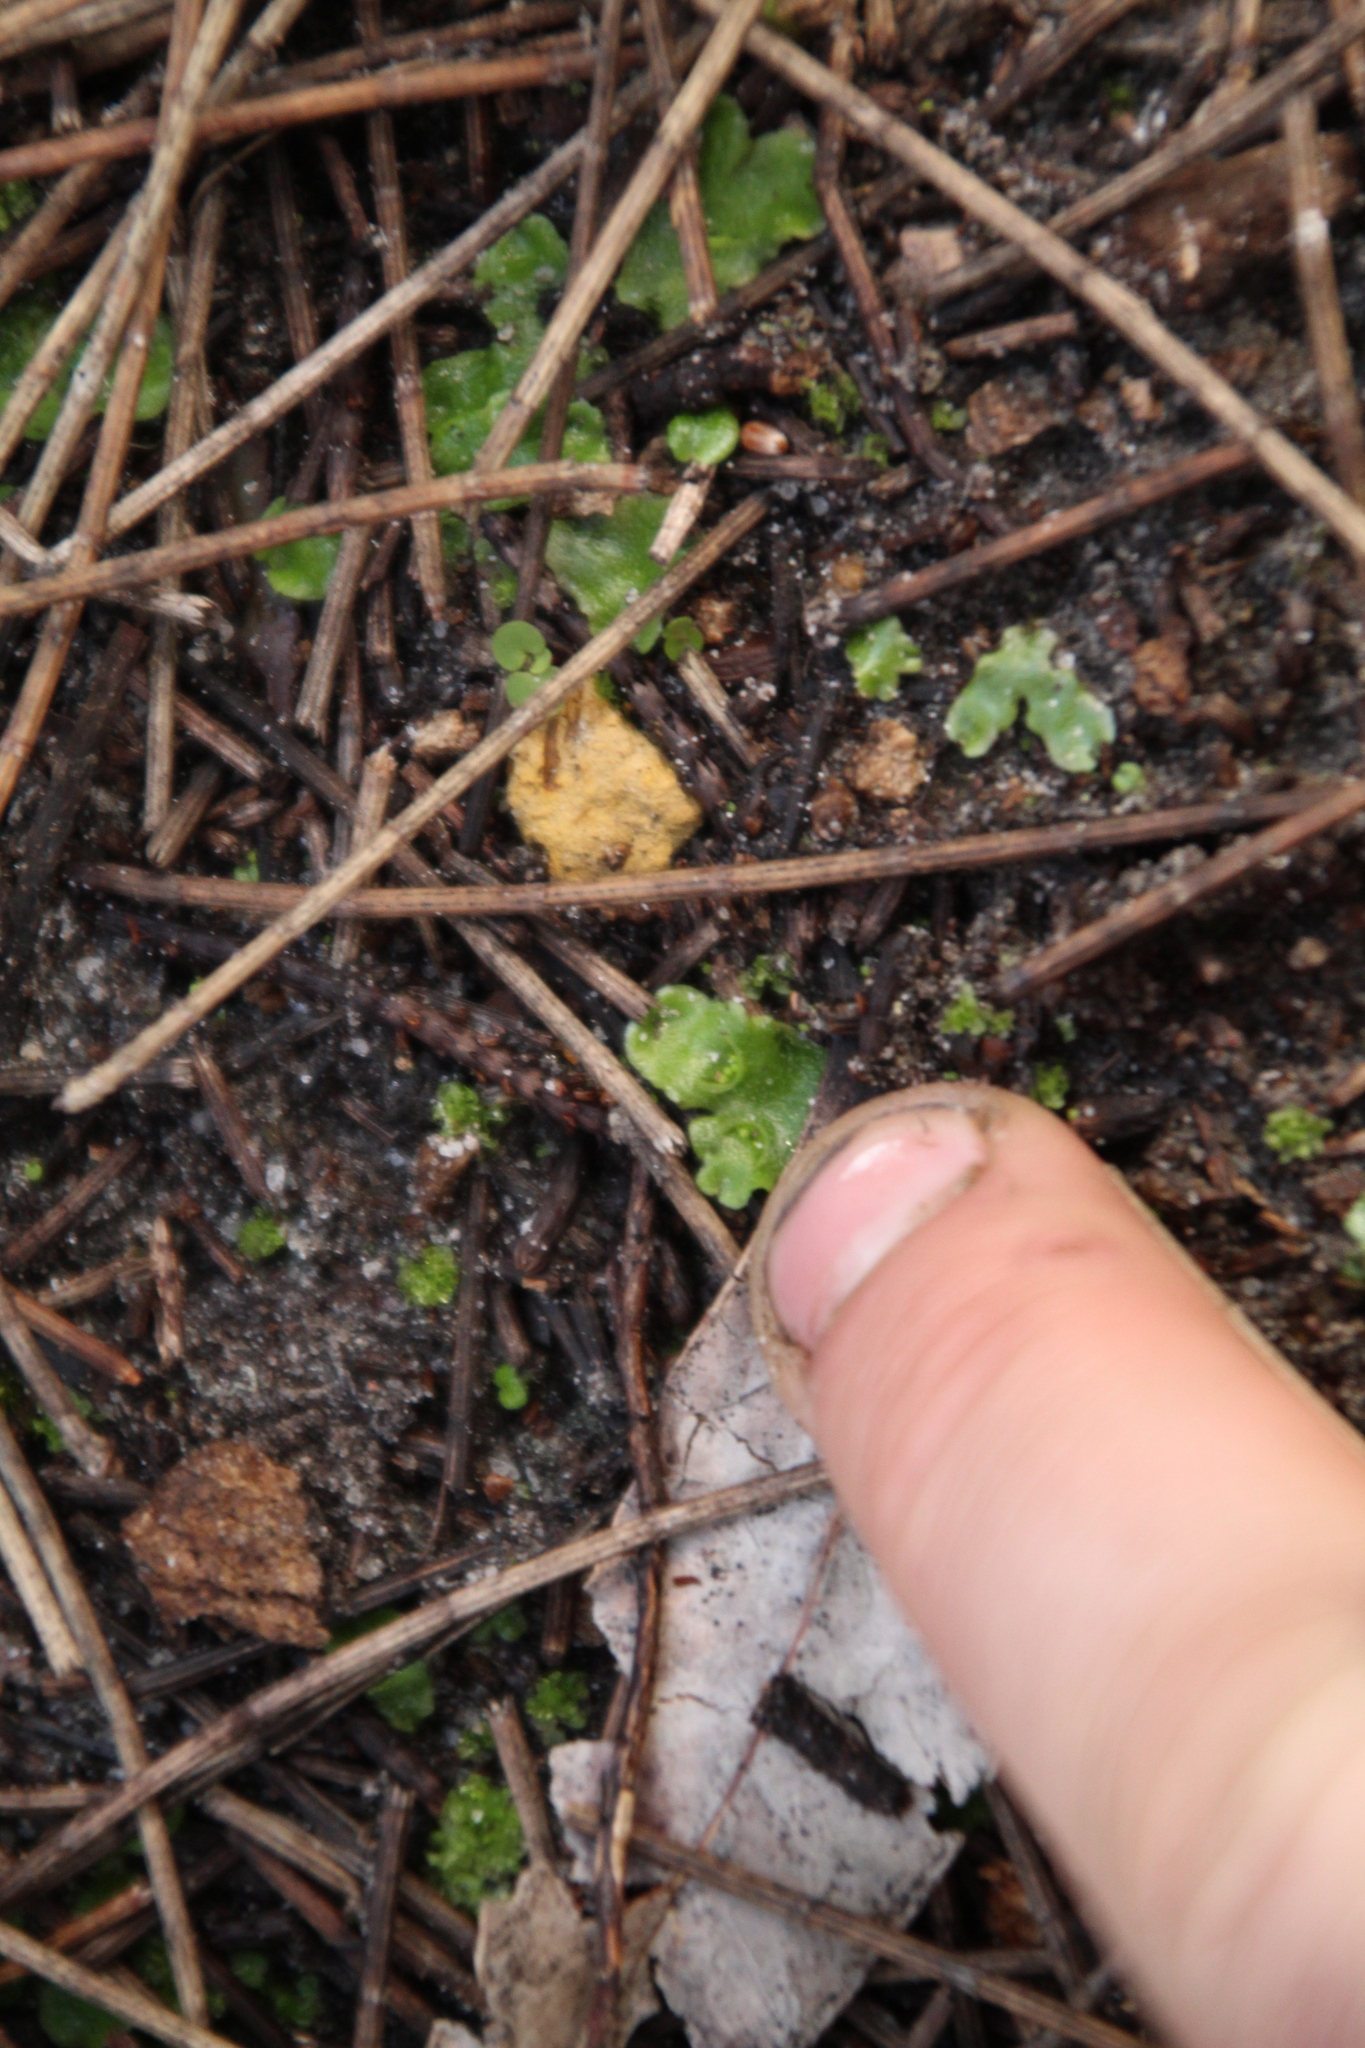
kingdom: Plantae
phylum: Marchantiophyta
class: Marchantiopsida
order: Lunulariales
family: Lunulariaceae
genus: Lunularia
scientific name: Lunularia cruciata
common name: Crescent-cup liverwort
